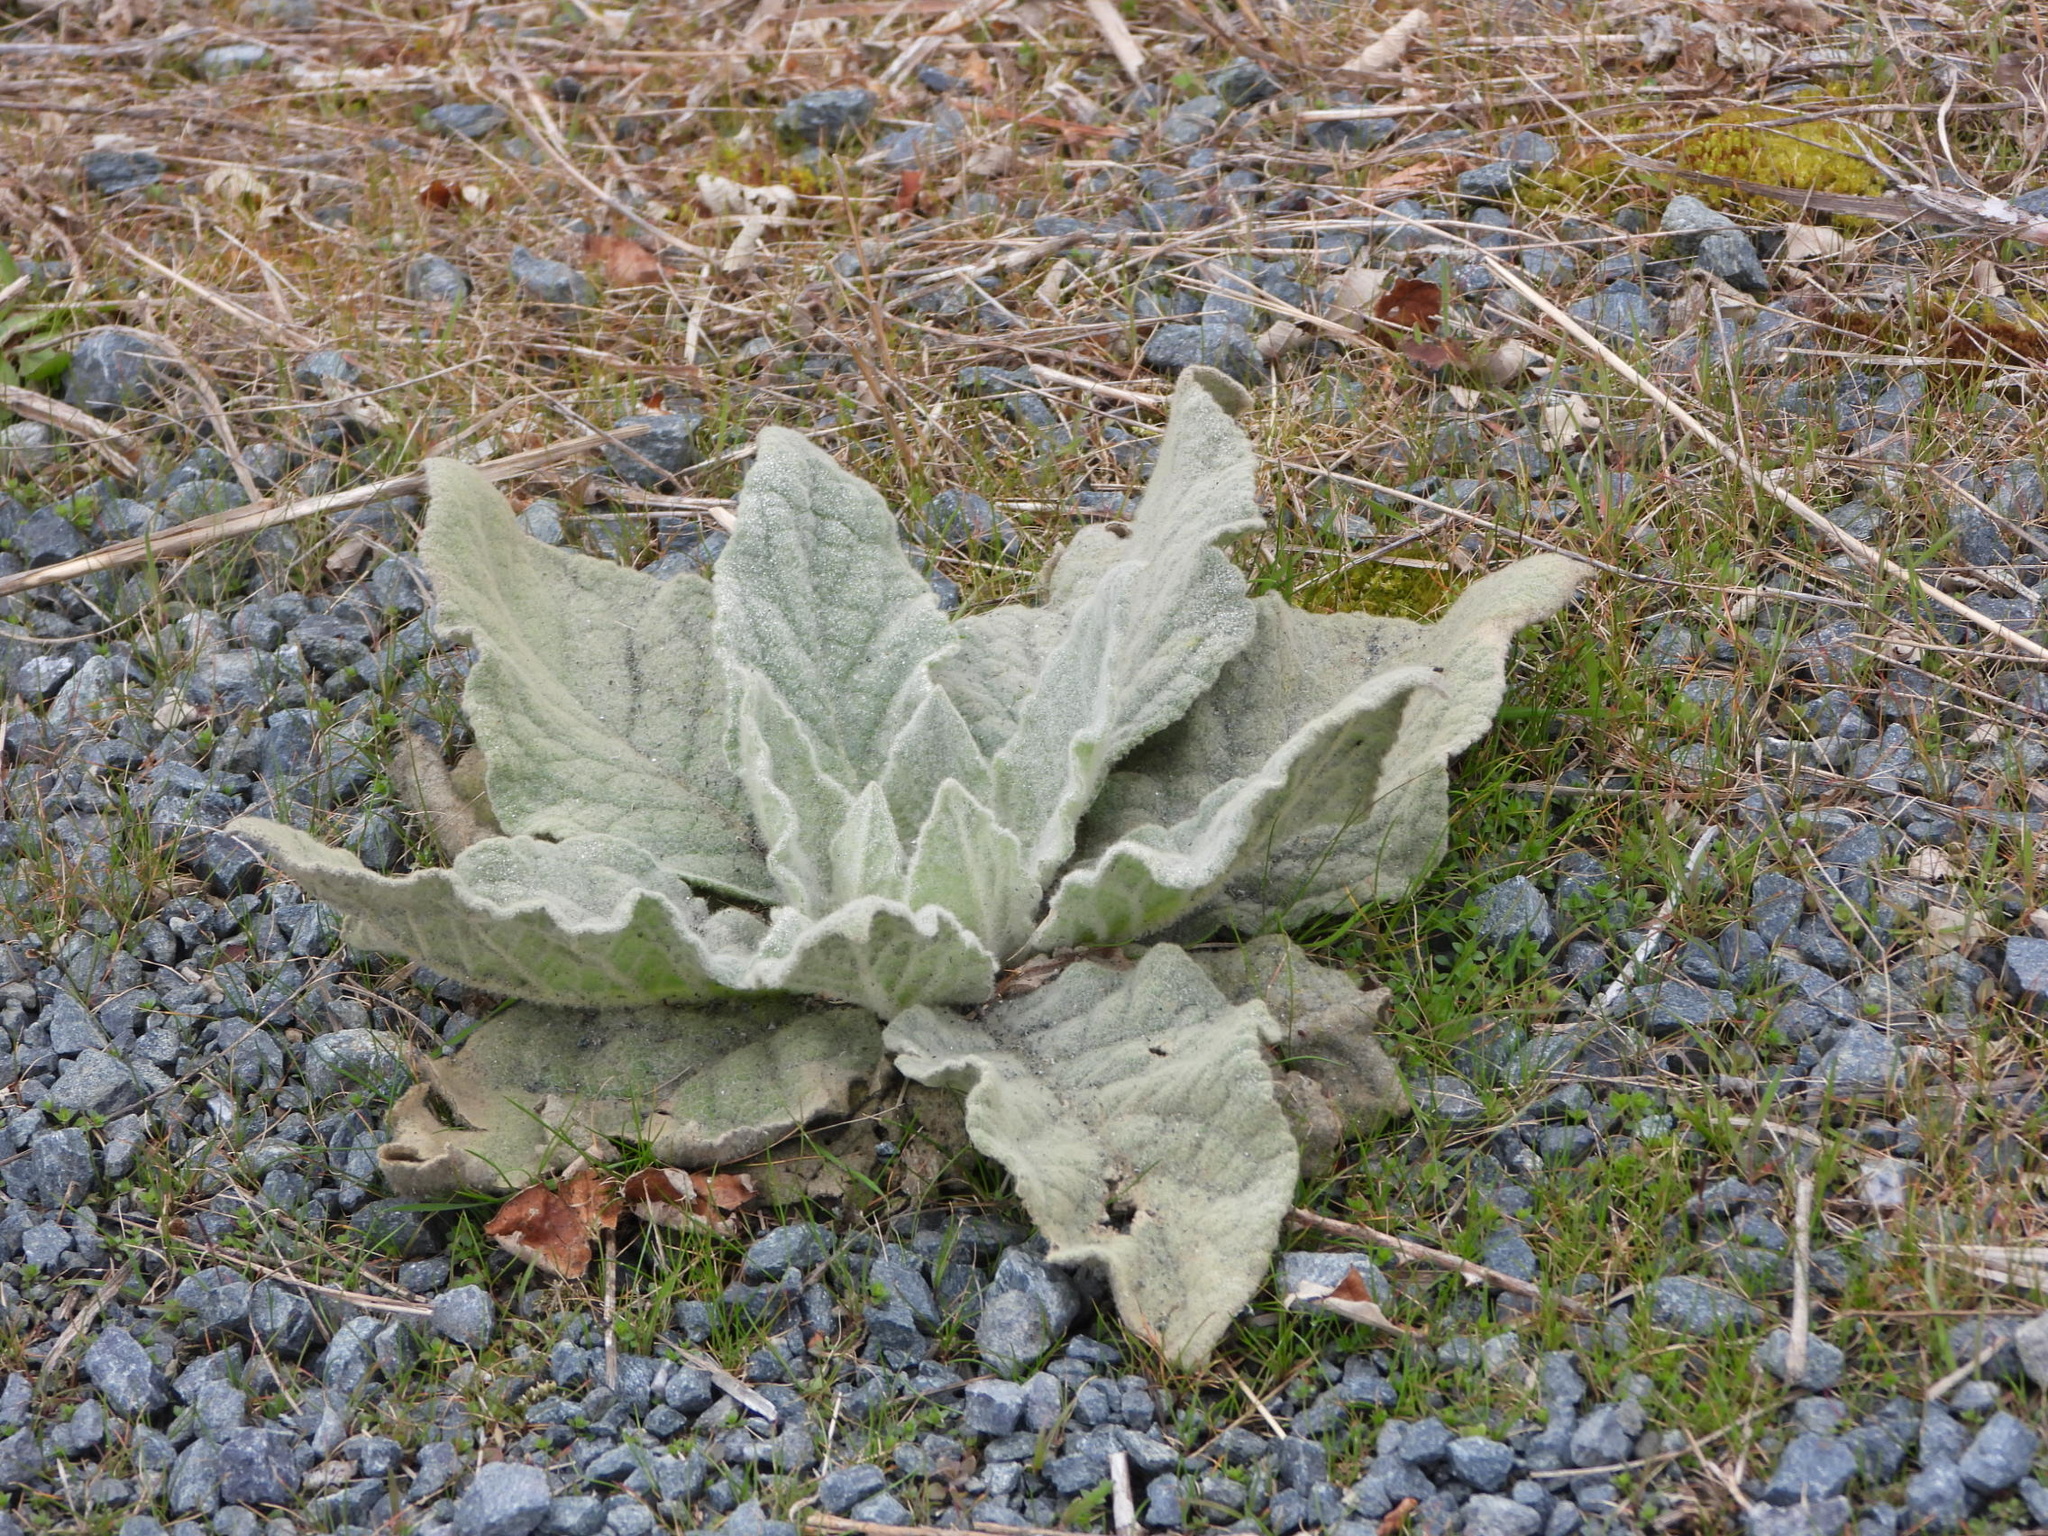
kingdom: Plantae
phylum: Tracheophyta
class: Magnoliopsida
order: Lamiales
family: Scrophulariaceae
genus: Verbascum
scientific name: Verbascum thapsus
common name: Common mullein
